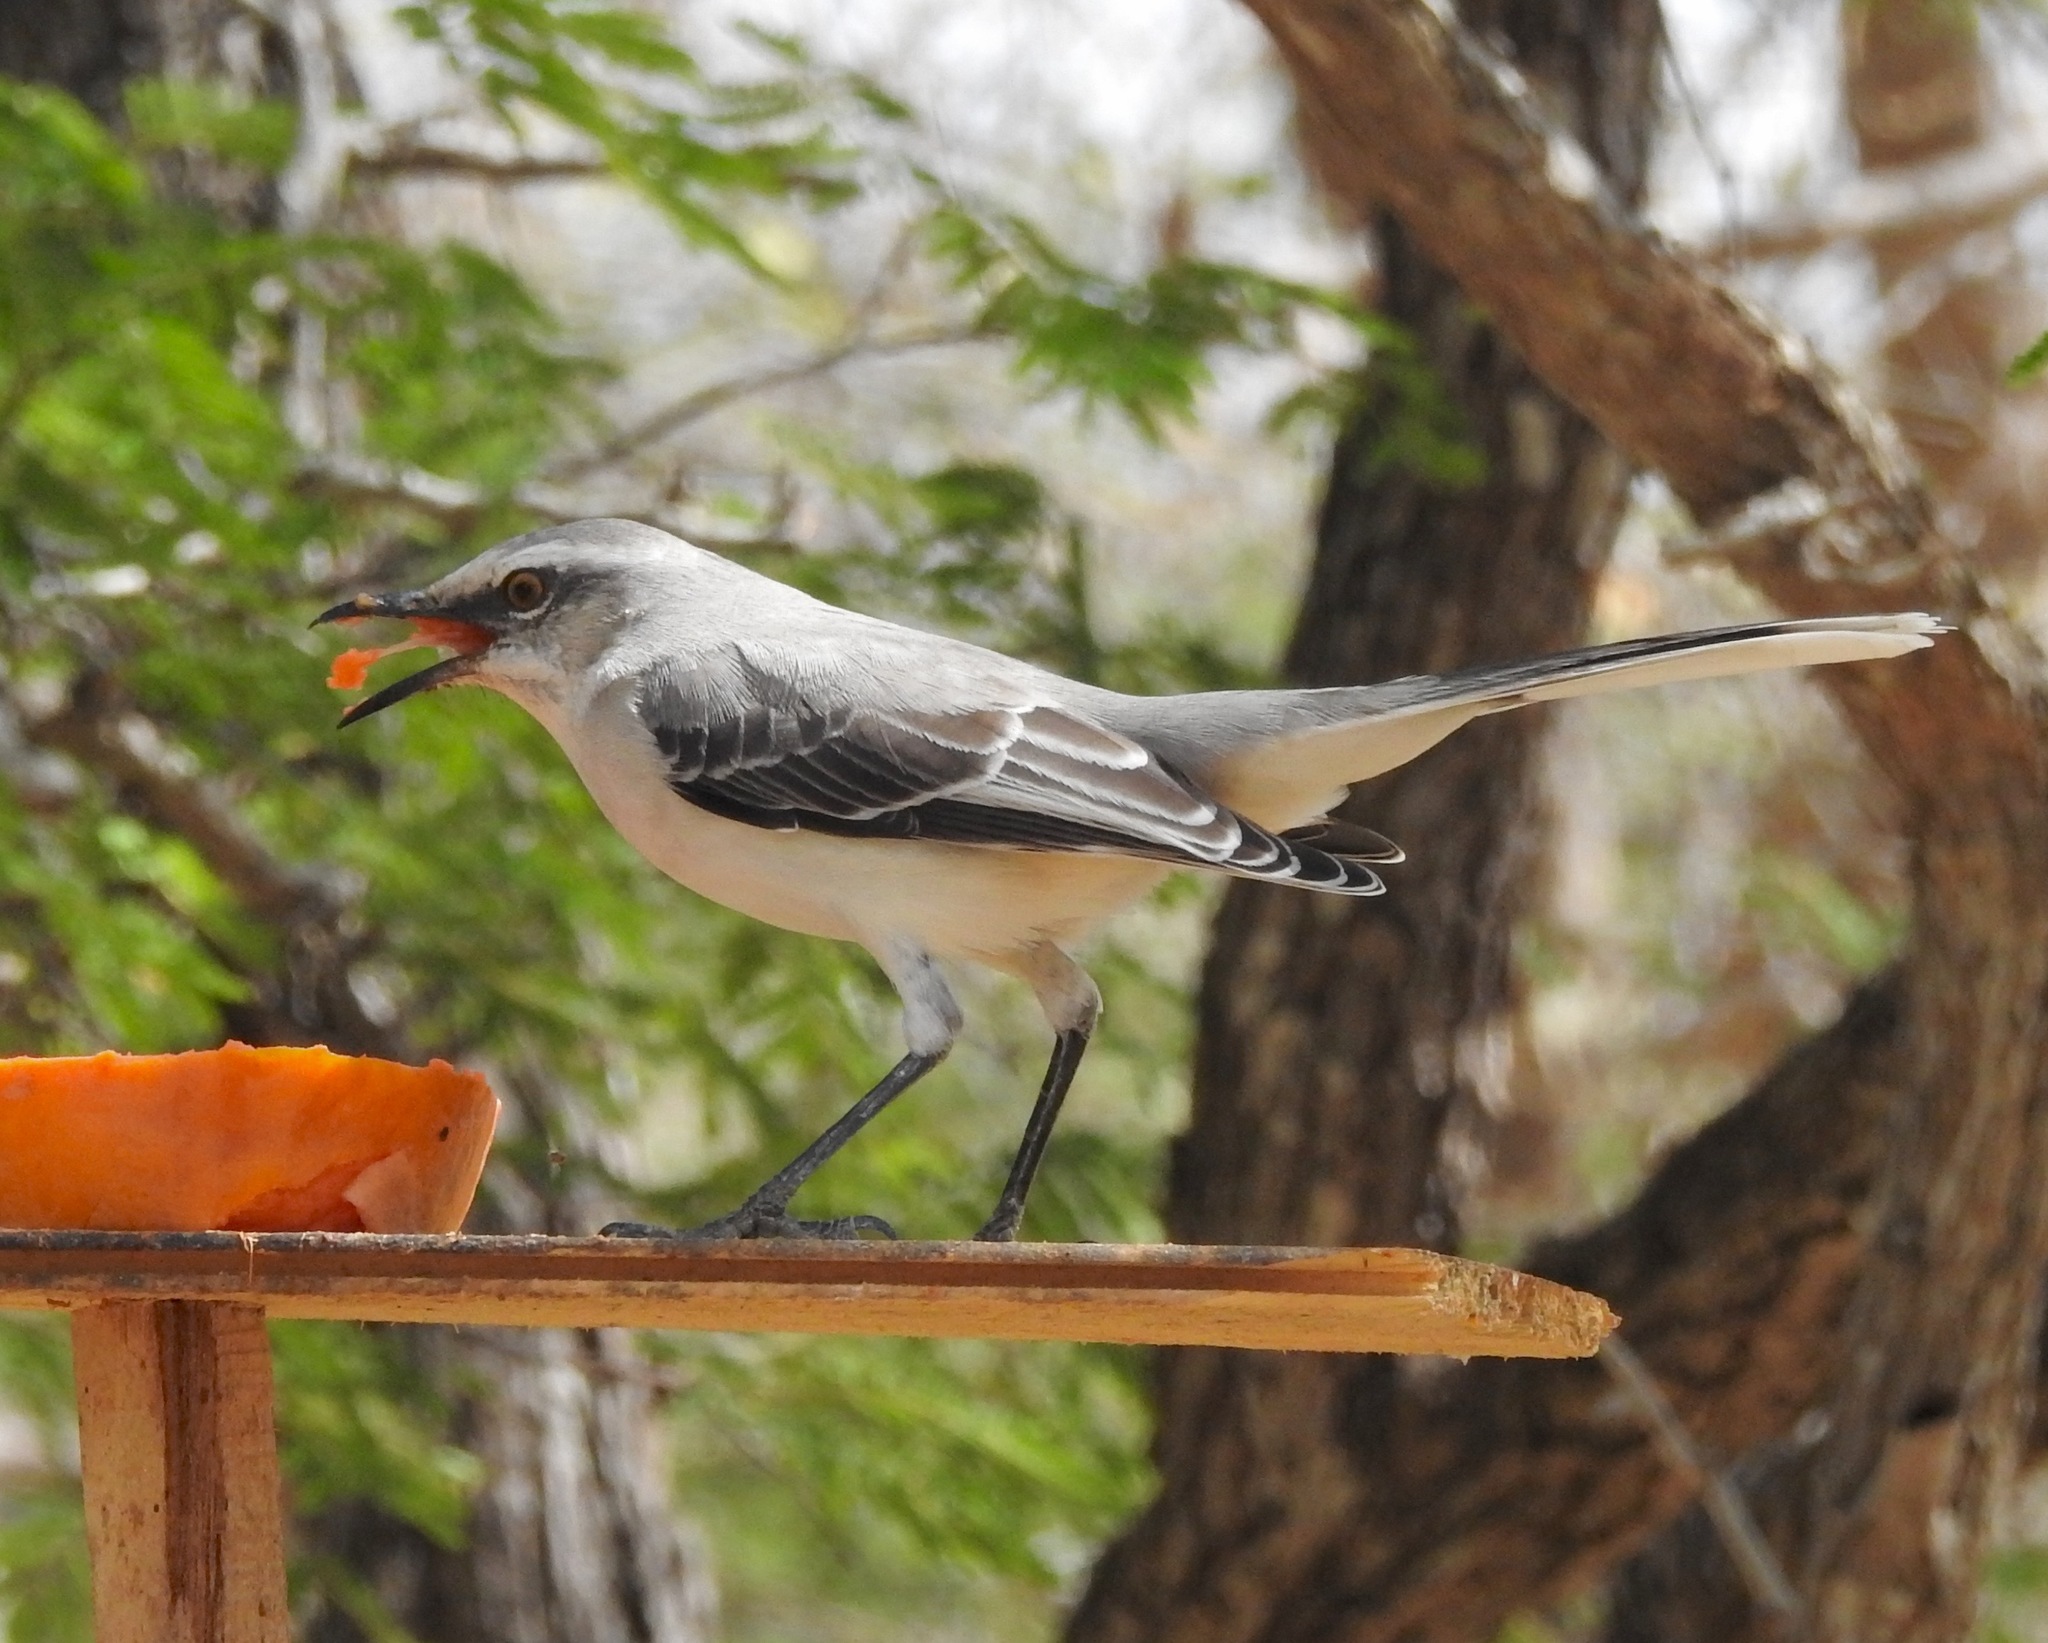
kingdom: Animalia
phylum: Chordata
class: Aves
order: Passeriformes
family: Mimidae
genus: Mimus
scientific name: Mimus gilvus
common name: Tropical mockingbird
